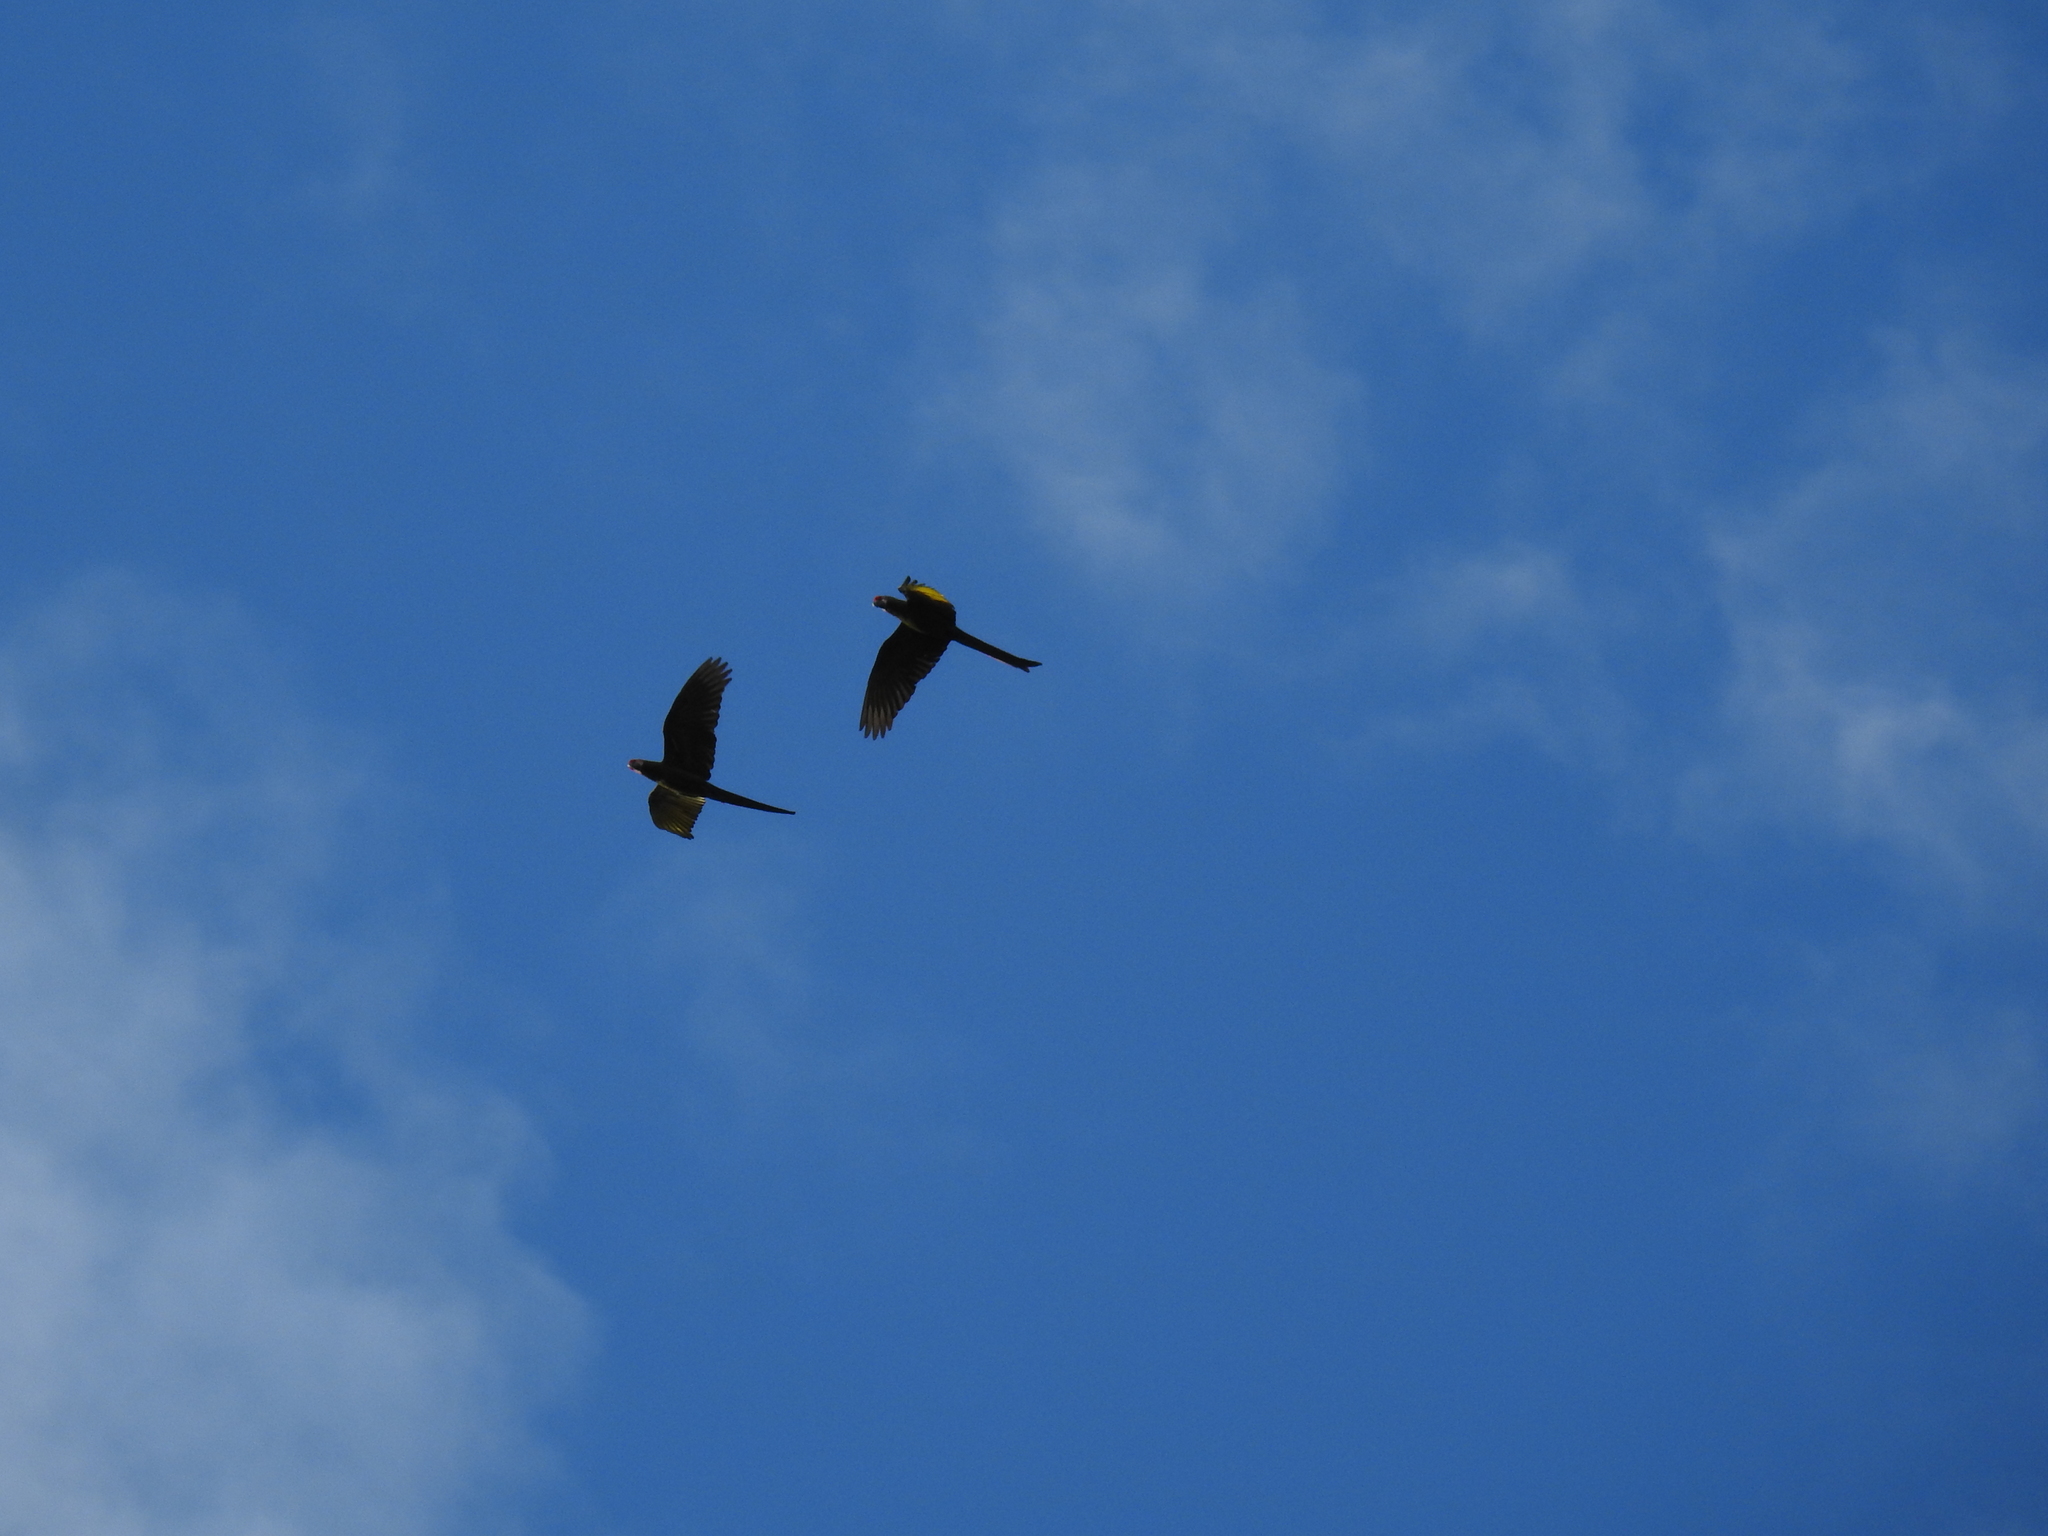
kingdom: Animalia
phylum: Chordata
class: Aves
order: Psittaciformes
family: Psittacidae
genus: Ara
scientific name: Ara militaris
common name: Military macaw
